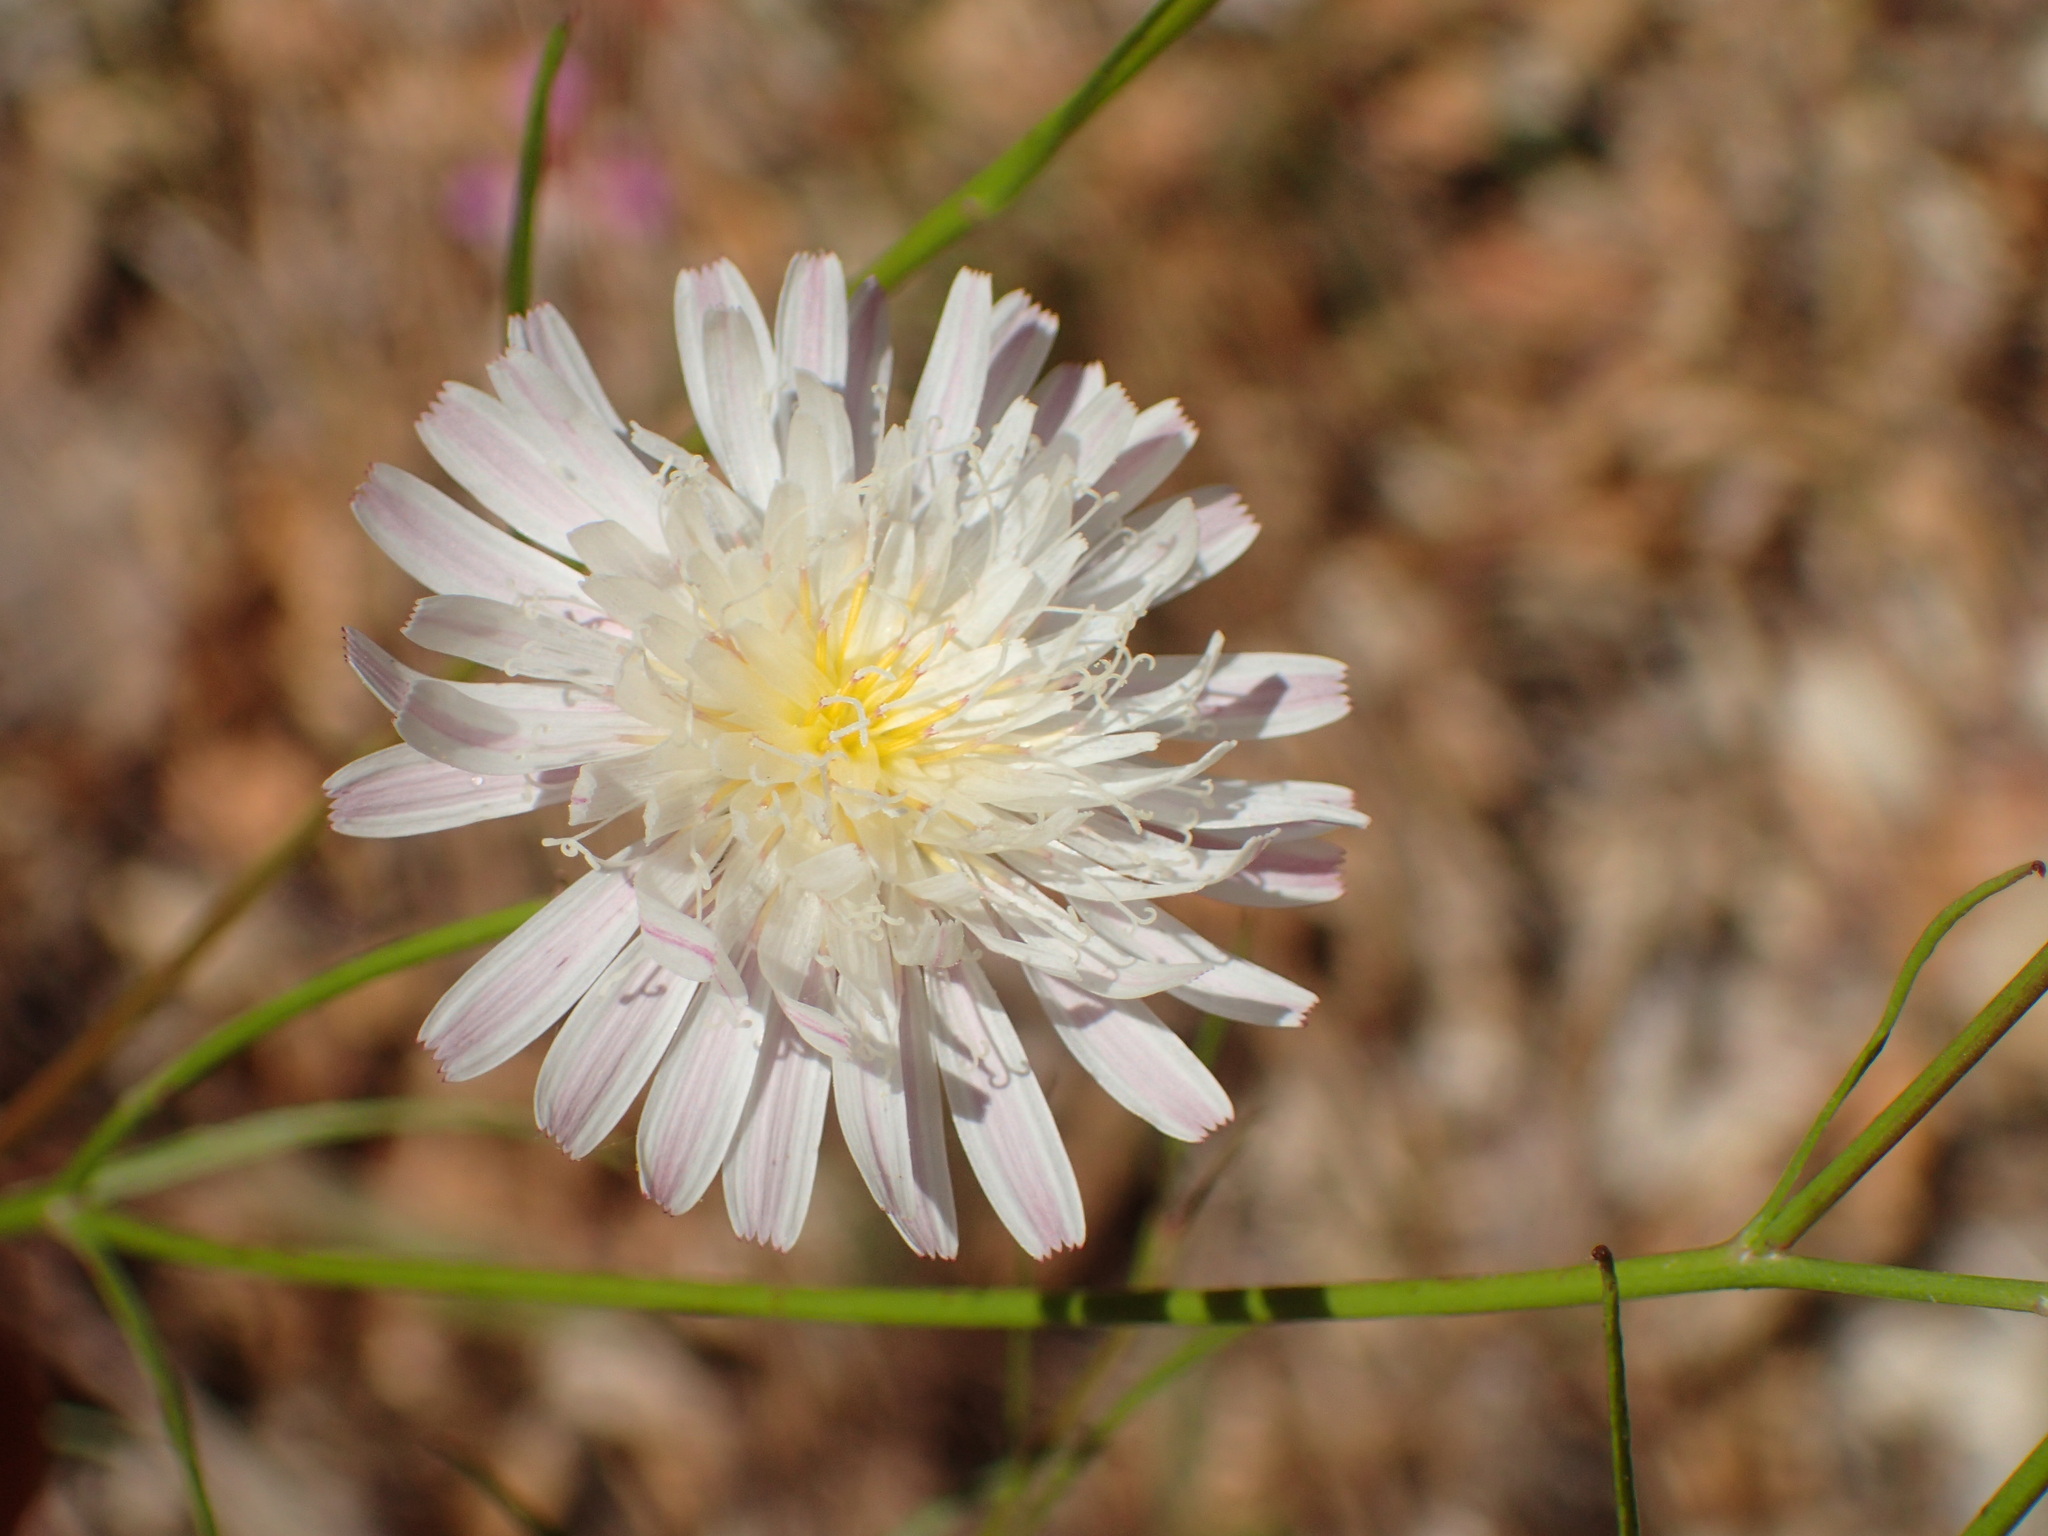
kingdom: Plantae
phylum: Tracheophyta
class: Magnoliopsida
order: Asterales
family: Asteraceae
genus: Malacothrix
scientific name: Malacothrix saxatilis
